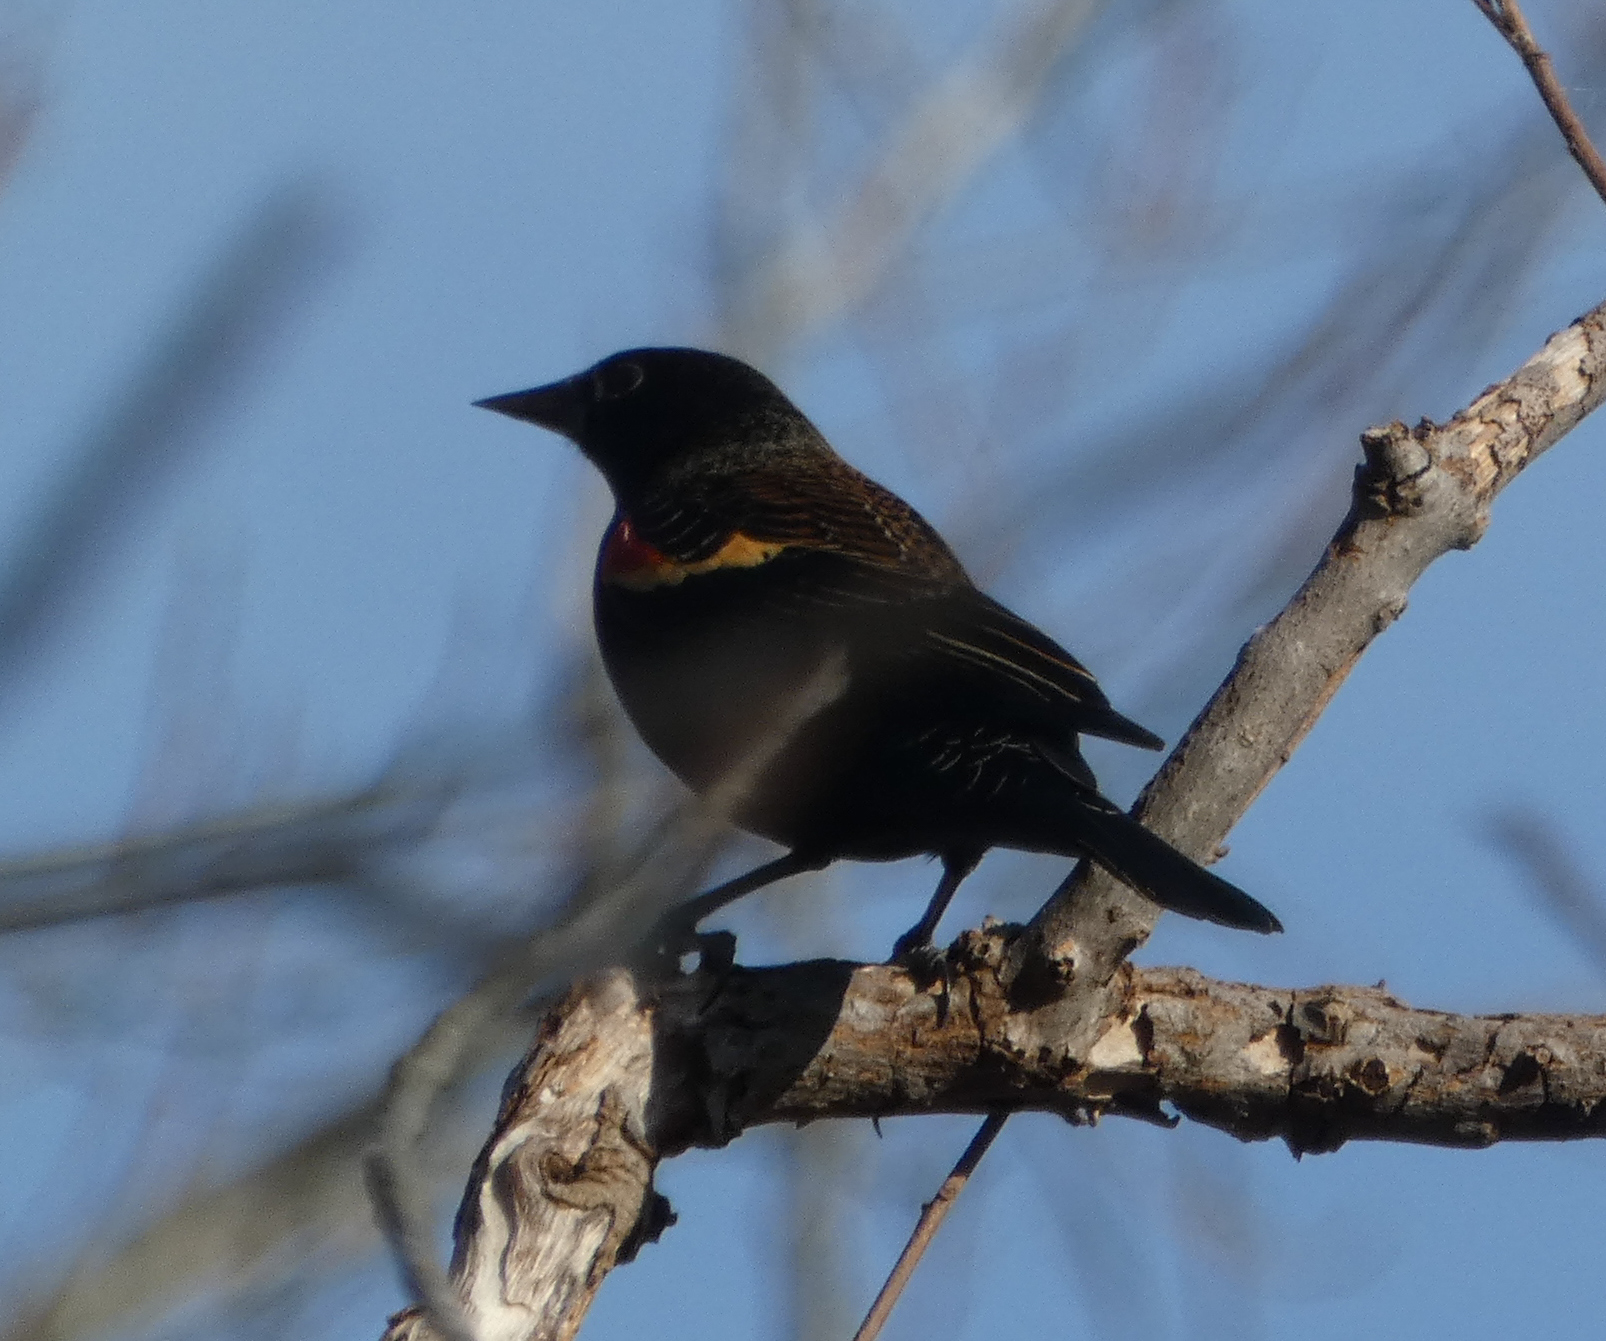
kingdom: Animalia
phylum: Chordata
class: Aves
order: Passeriformes
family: Icteridae
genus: Agelaius
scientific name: Agelaius phoeniceus
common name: Red-winged blackbird
